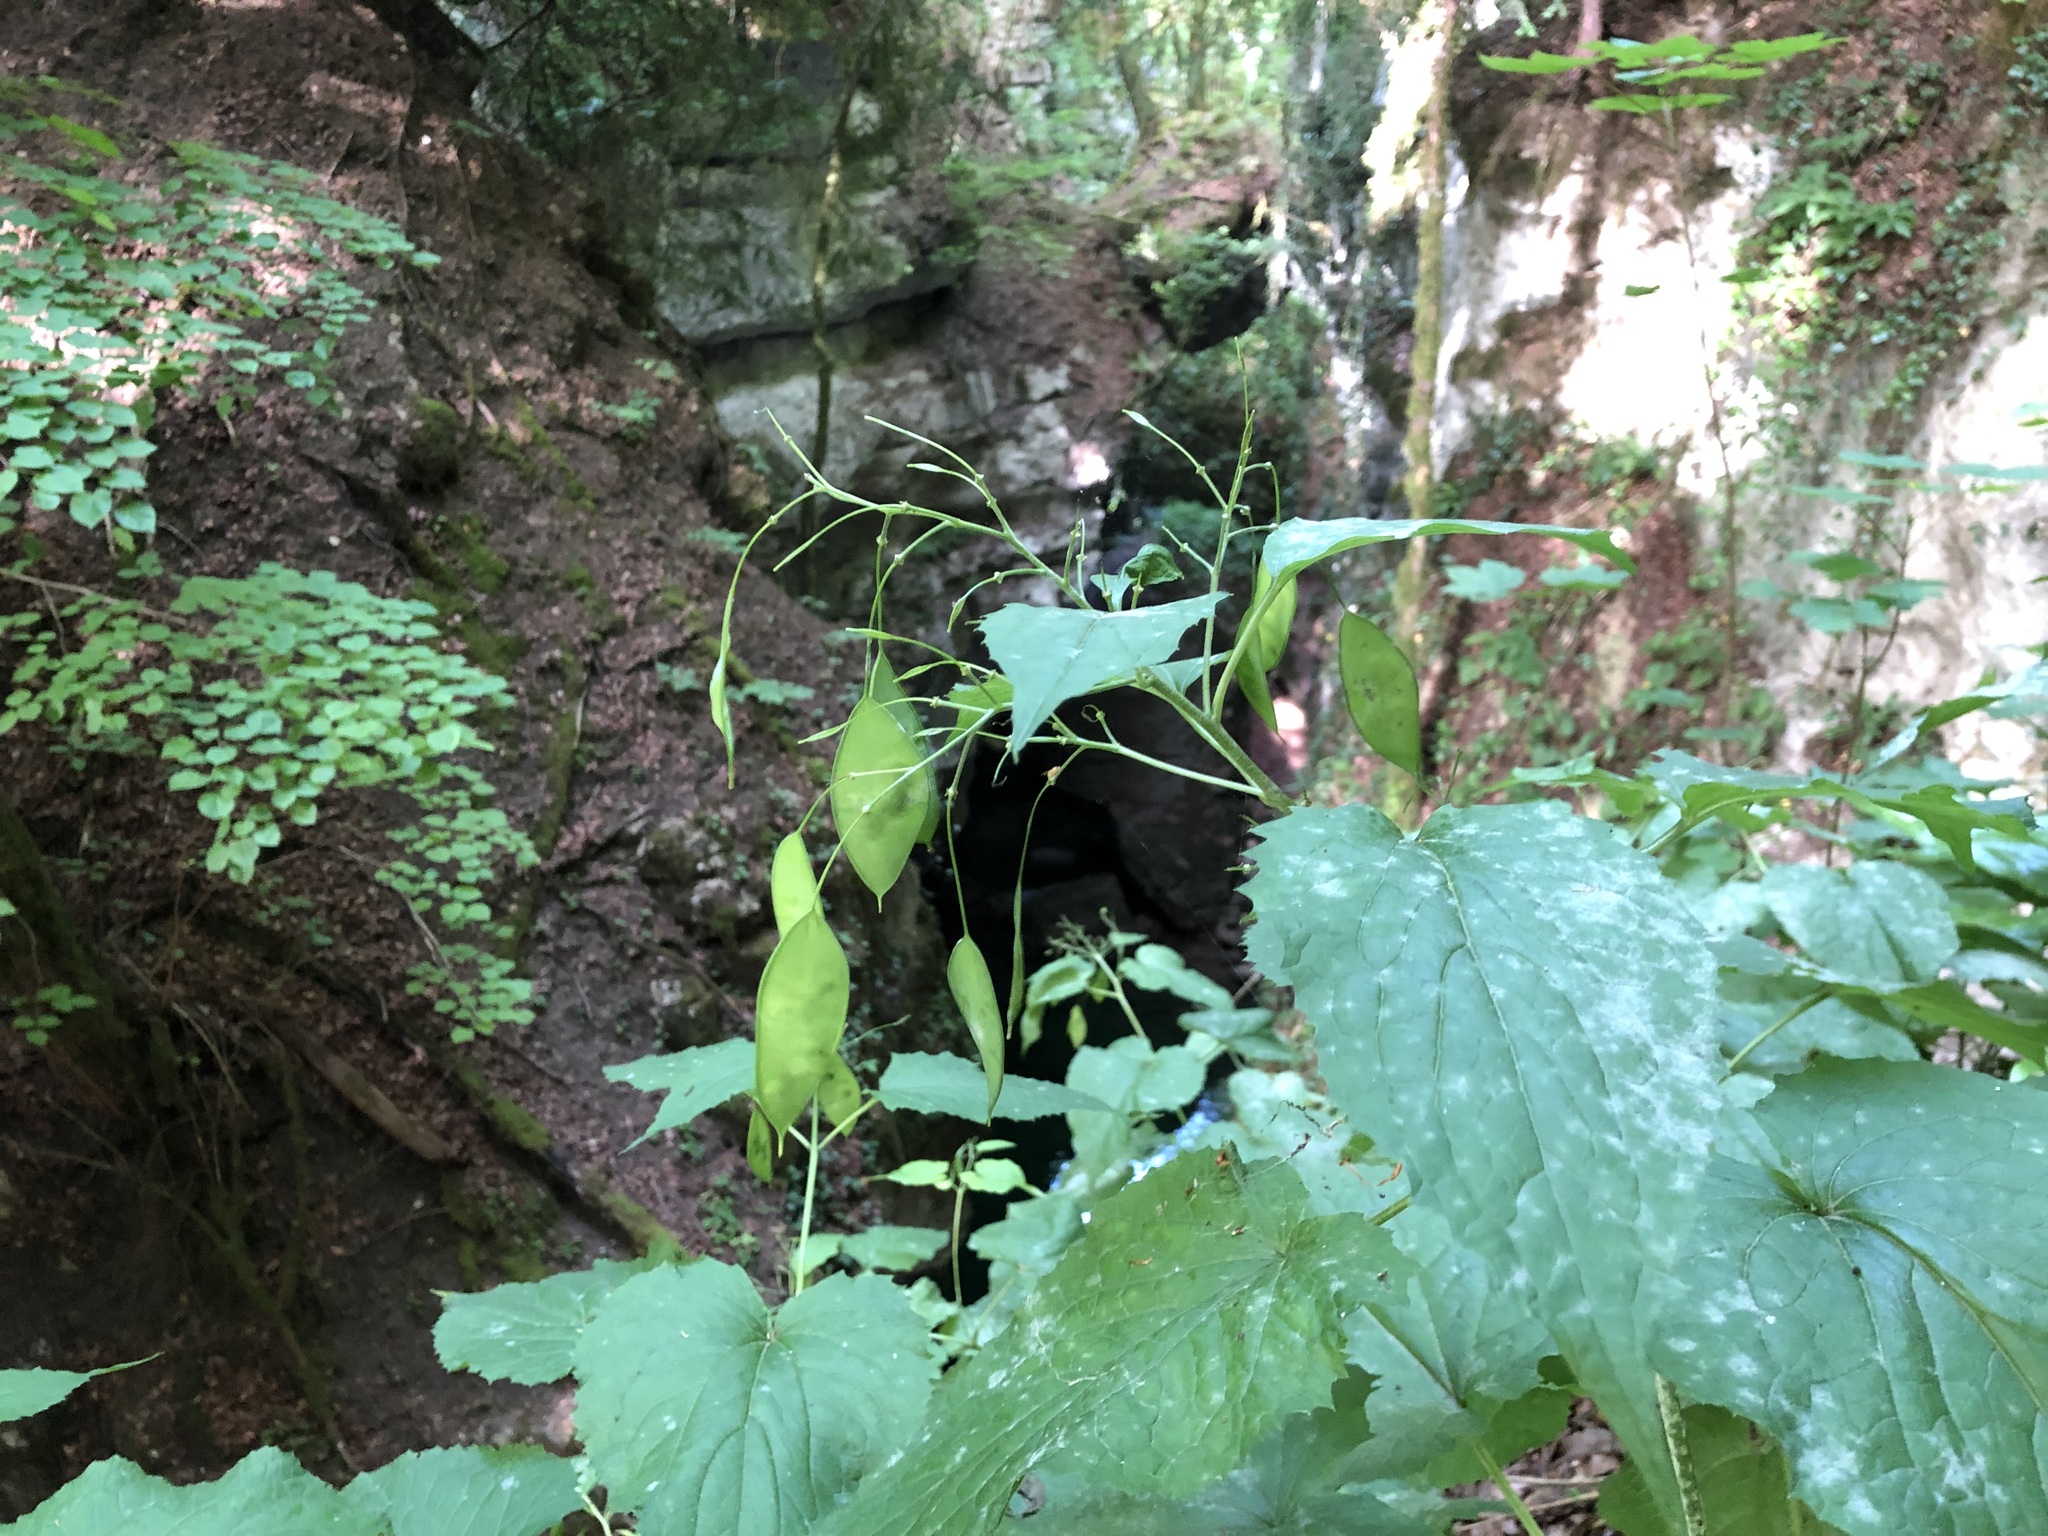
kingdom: Plantae
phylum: Tracheophyta
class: Magnoliopsida
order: Brassicales
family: Brassicaceae
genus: Lunaria
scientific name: Lunaria rediviva
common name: Perennial honesty
